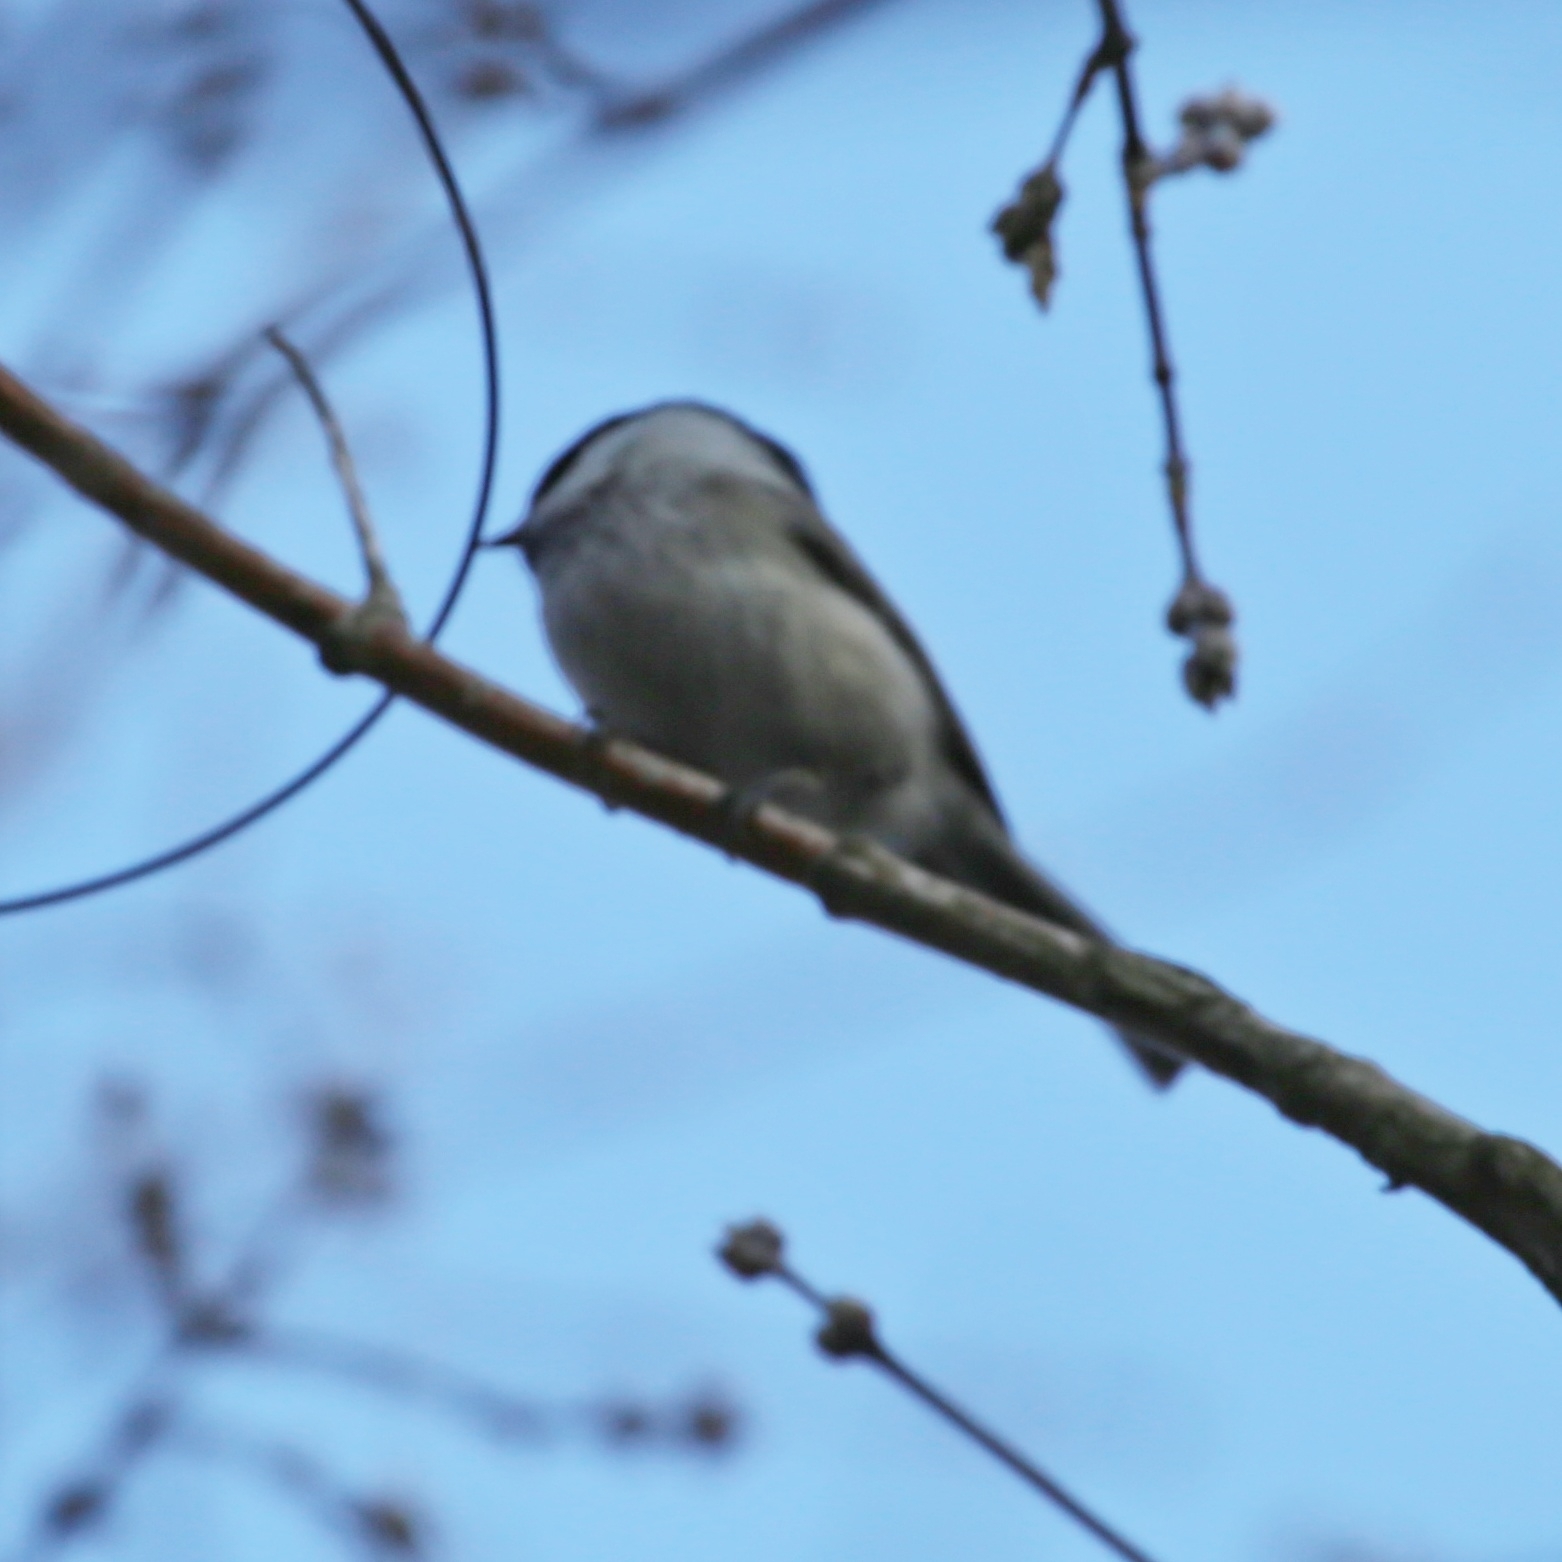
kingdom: Animalia
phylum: Chordata
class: Aves
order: Passeriformes
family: Paridae
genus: Poecile
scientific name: Poecile montanus
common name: Willow tit
